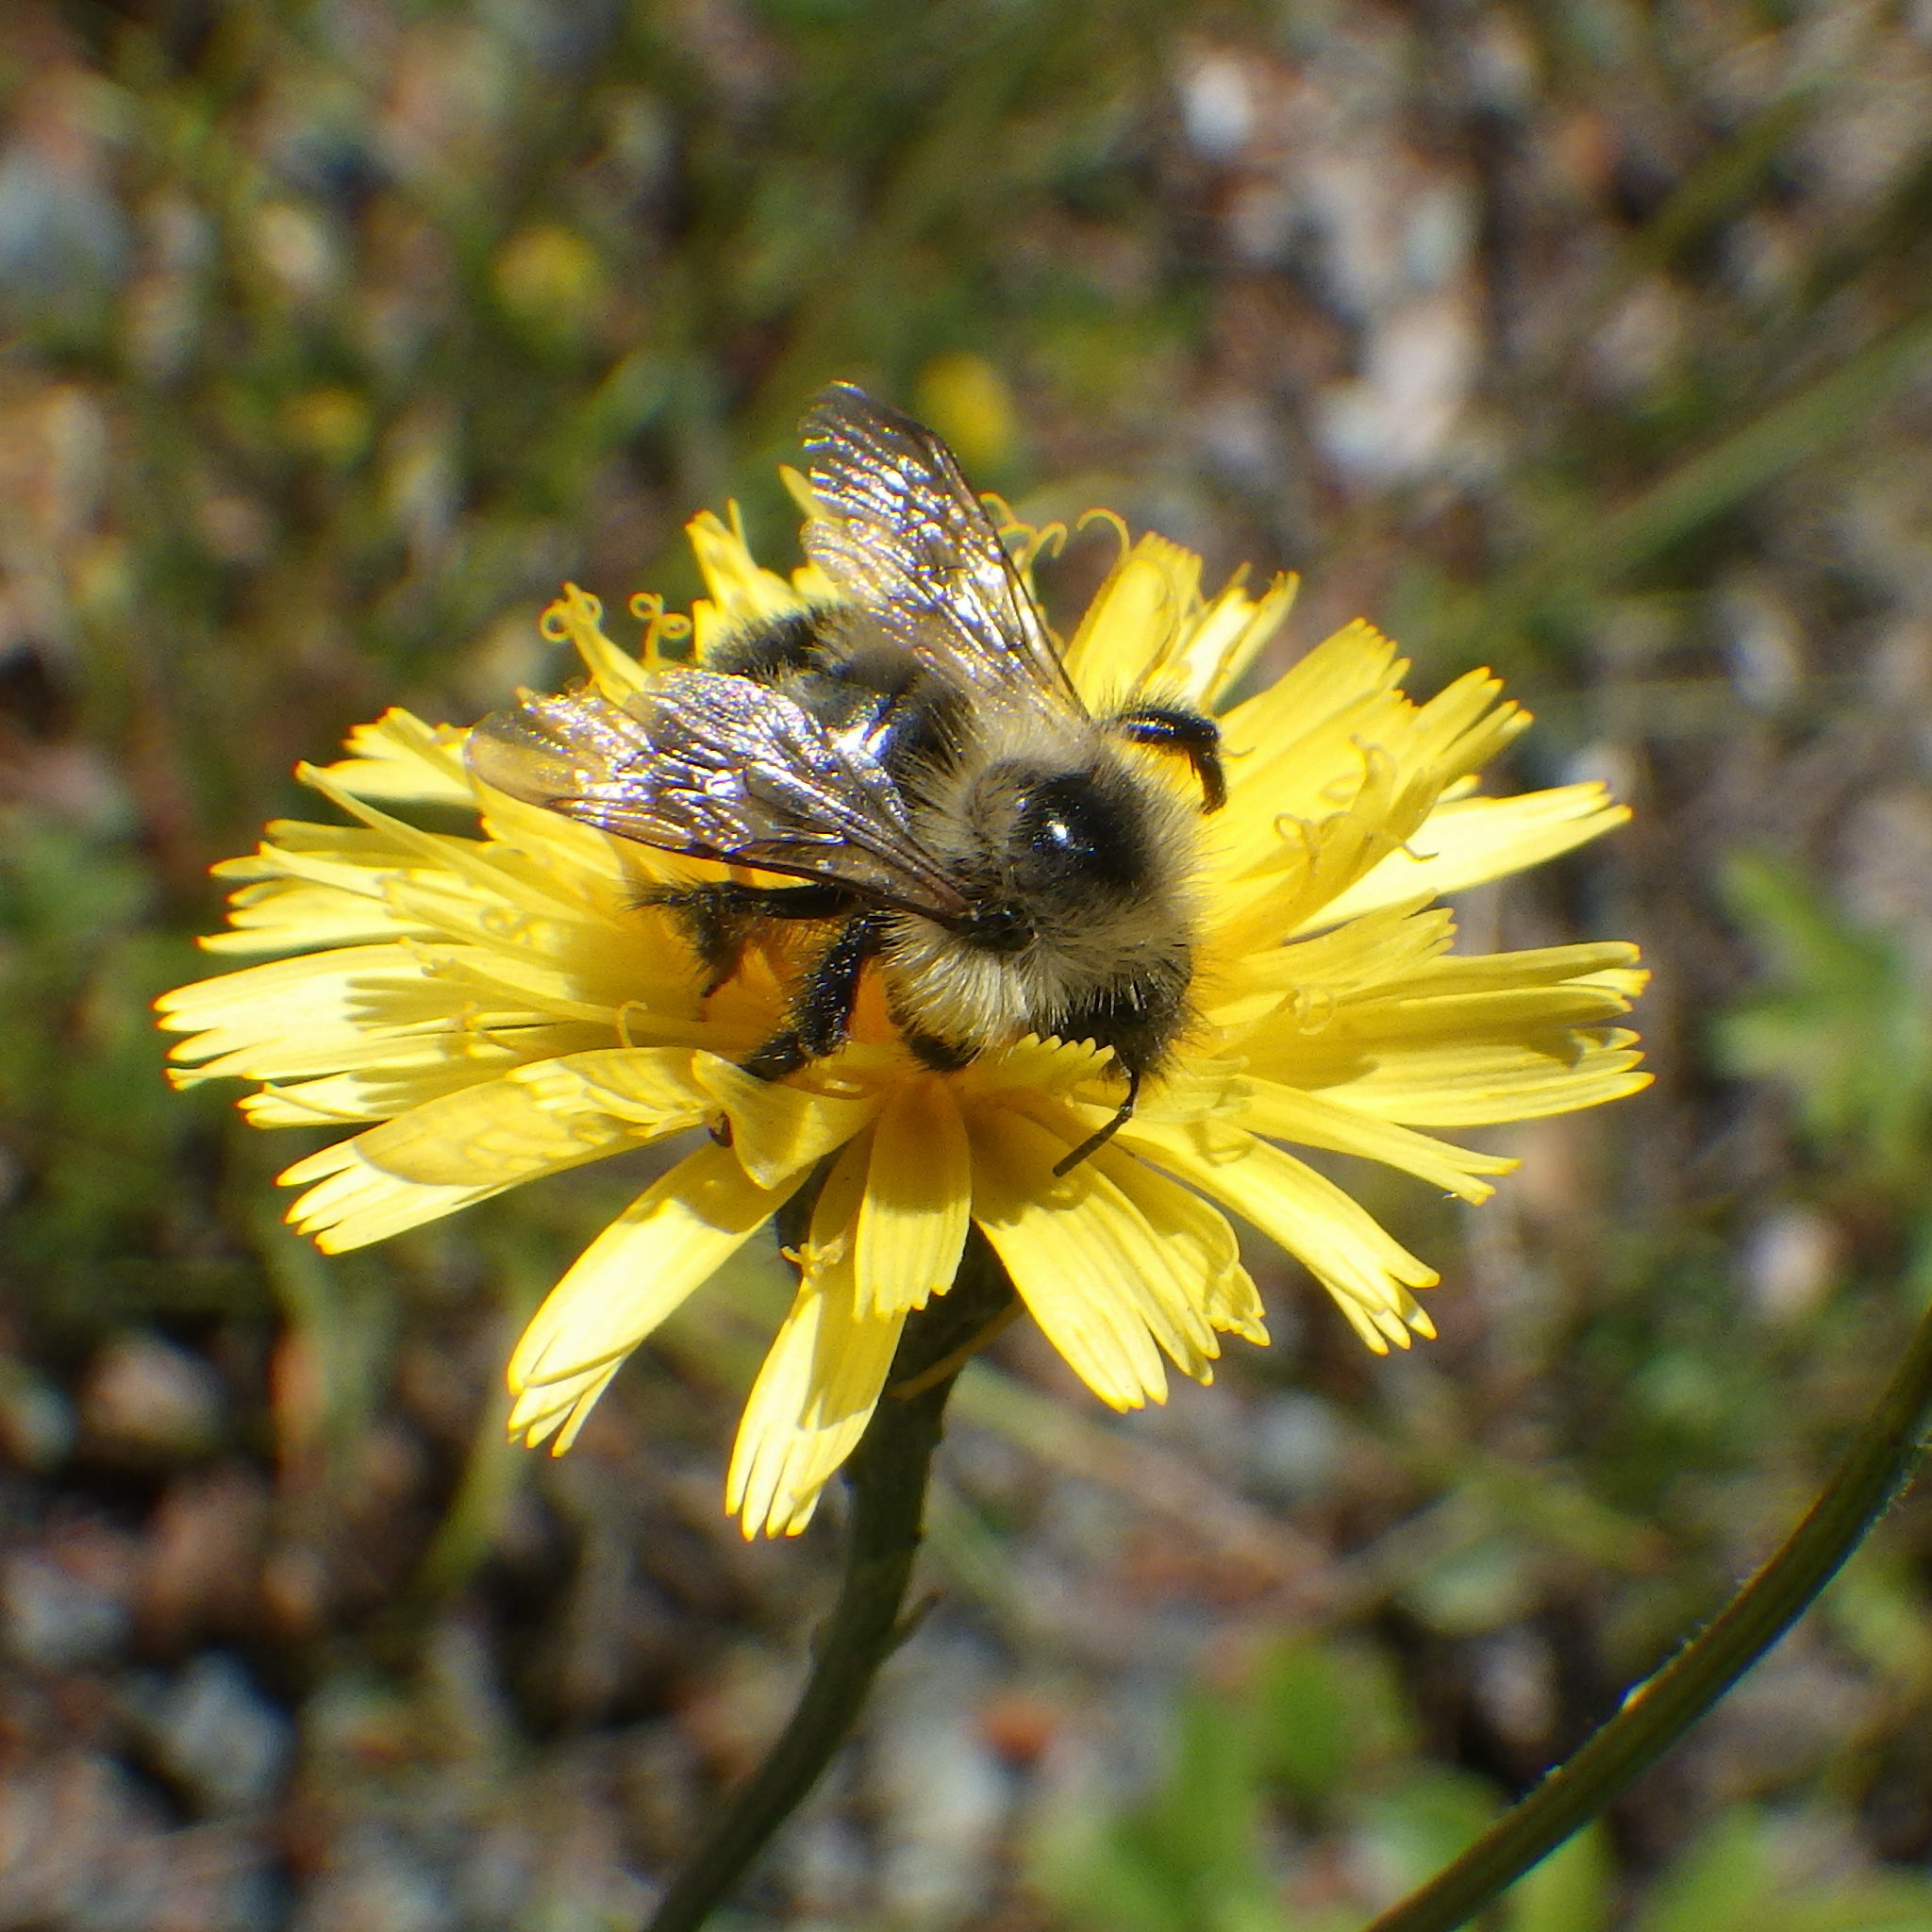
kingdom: Animalia
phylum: Arthropoda
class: Insecta
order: Hymenoptera
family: Apidae
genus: Pyrobombus
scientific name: Pyrobombus
